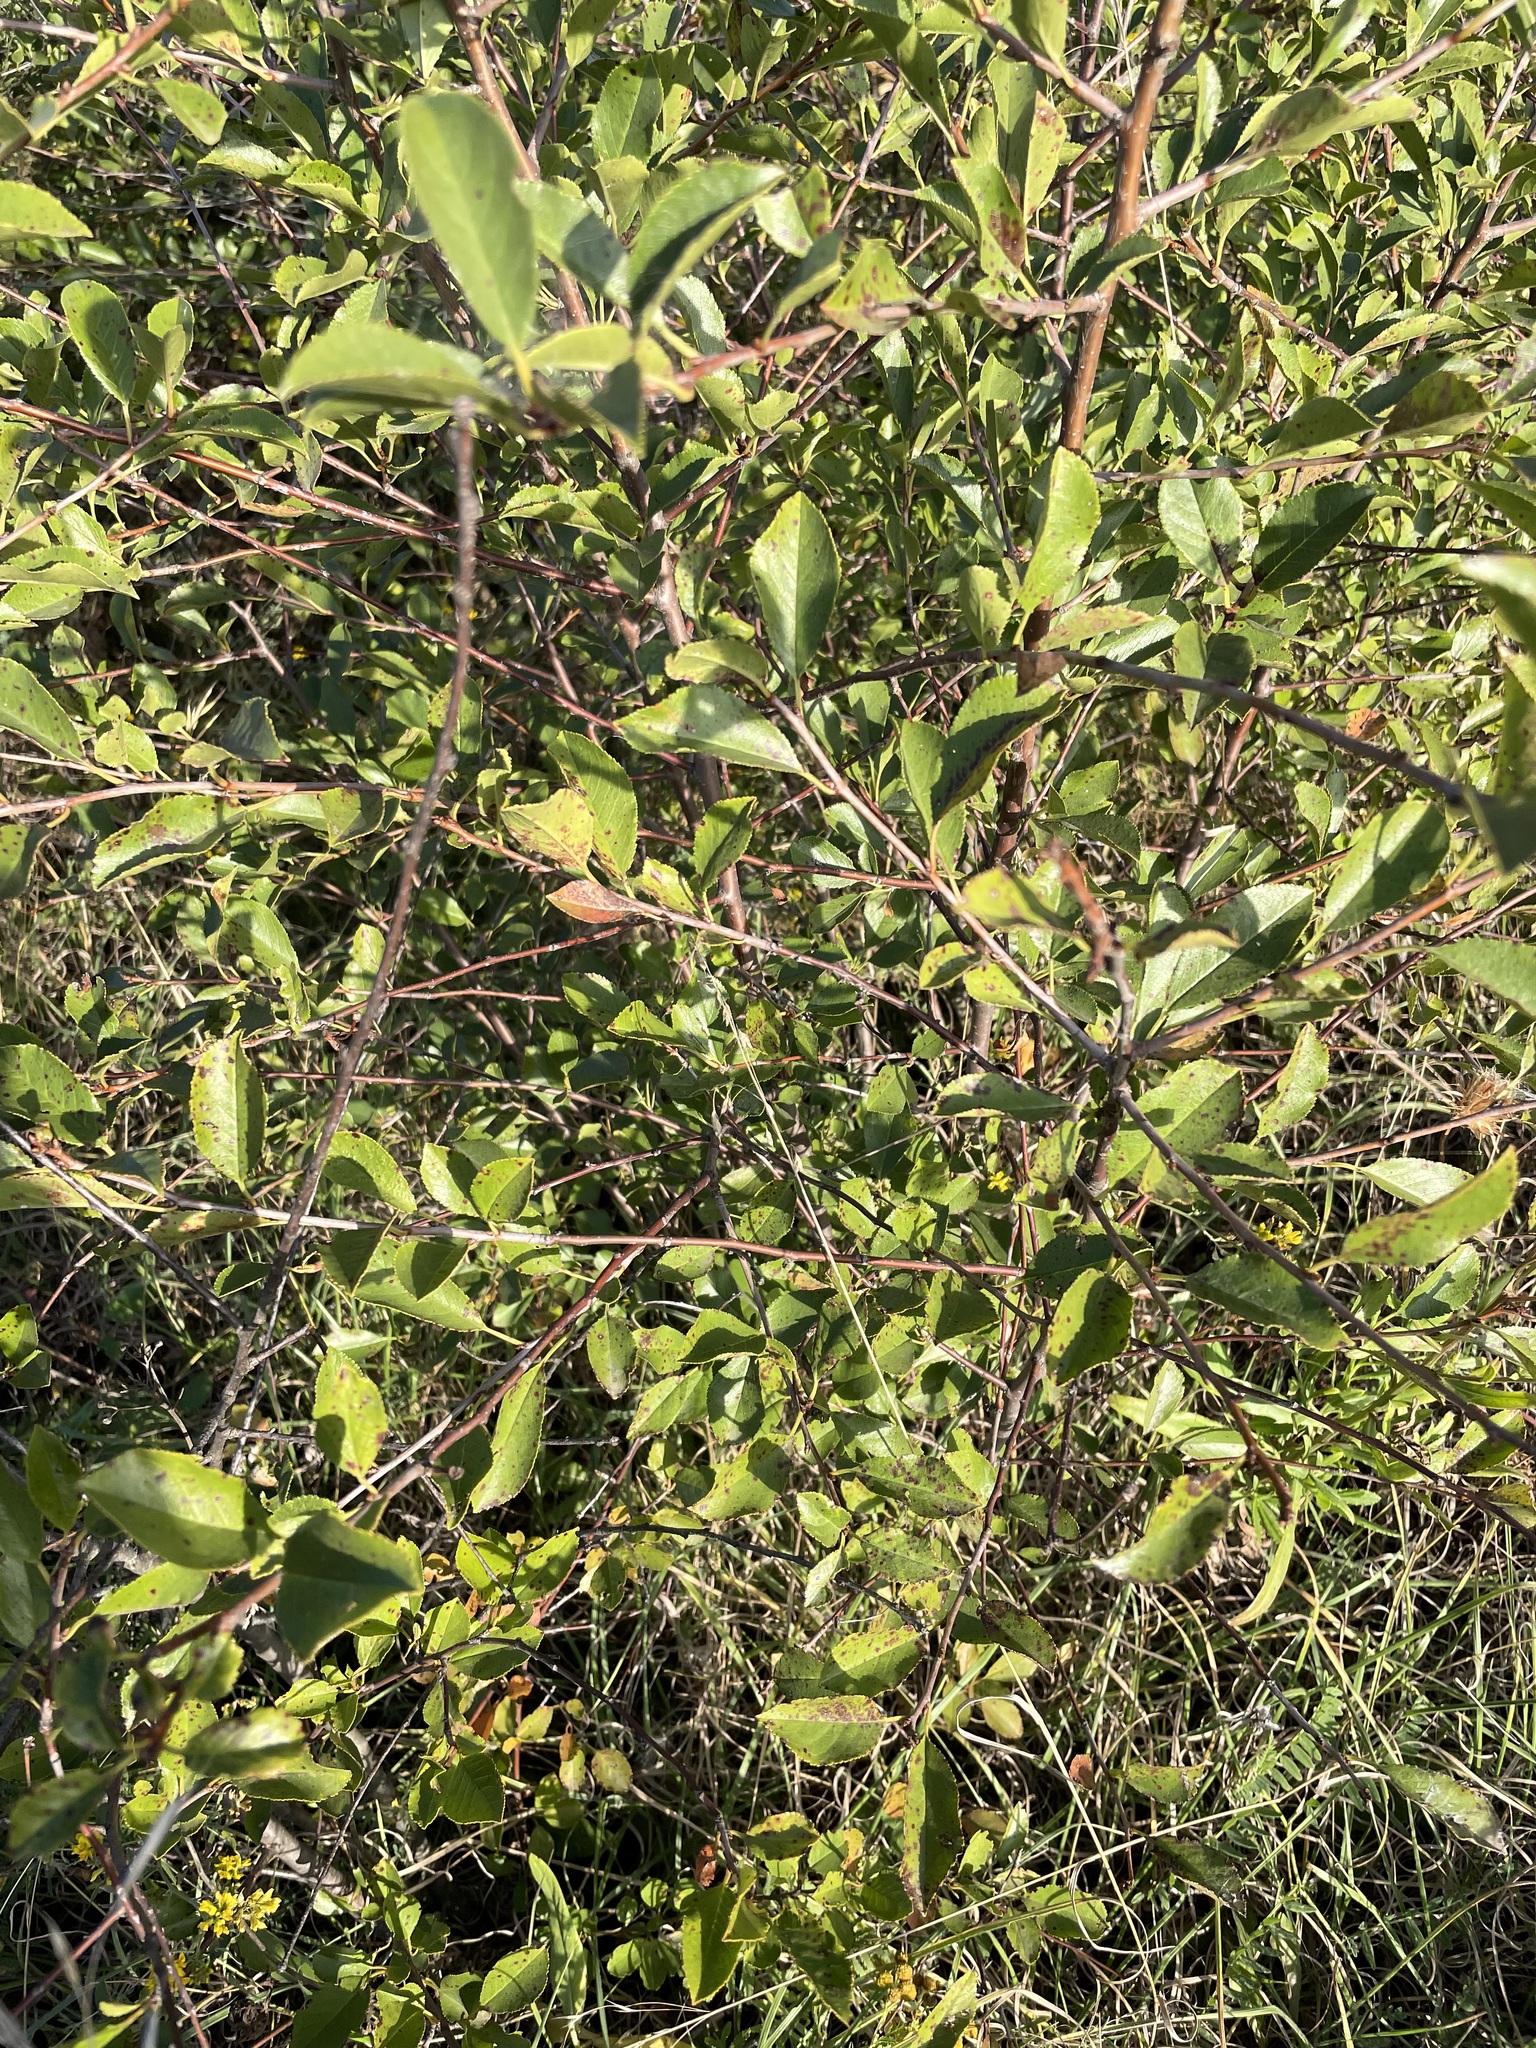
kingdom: Plantae
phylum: Tracheophyta
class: Magnoliopsida
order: Rosales
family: Rosaceae
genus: Prunus
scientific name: Prunus fruticosa
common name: European dwarf cherry
